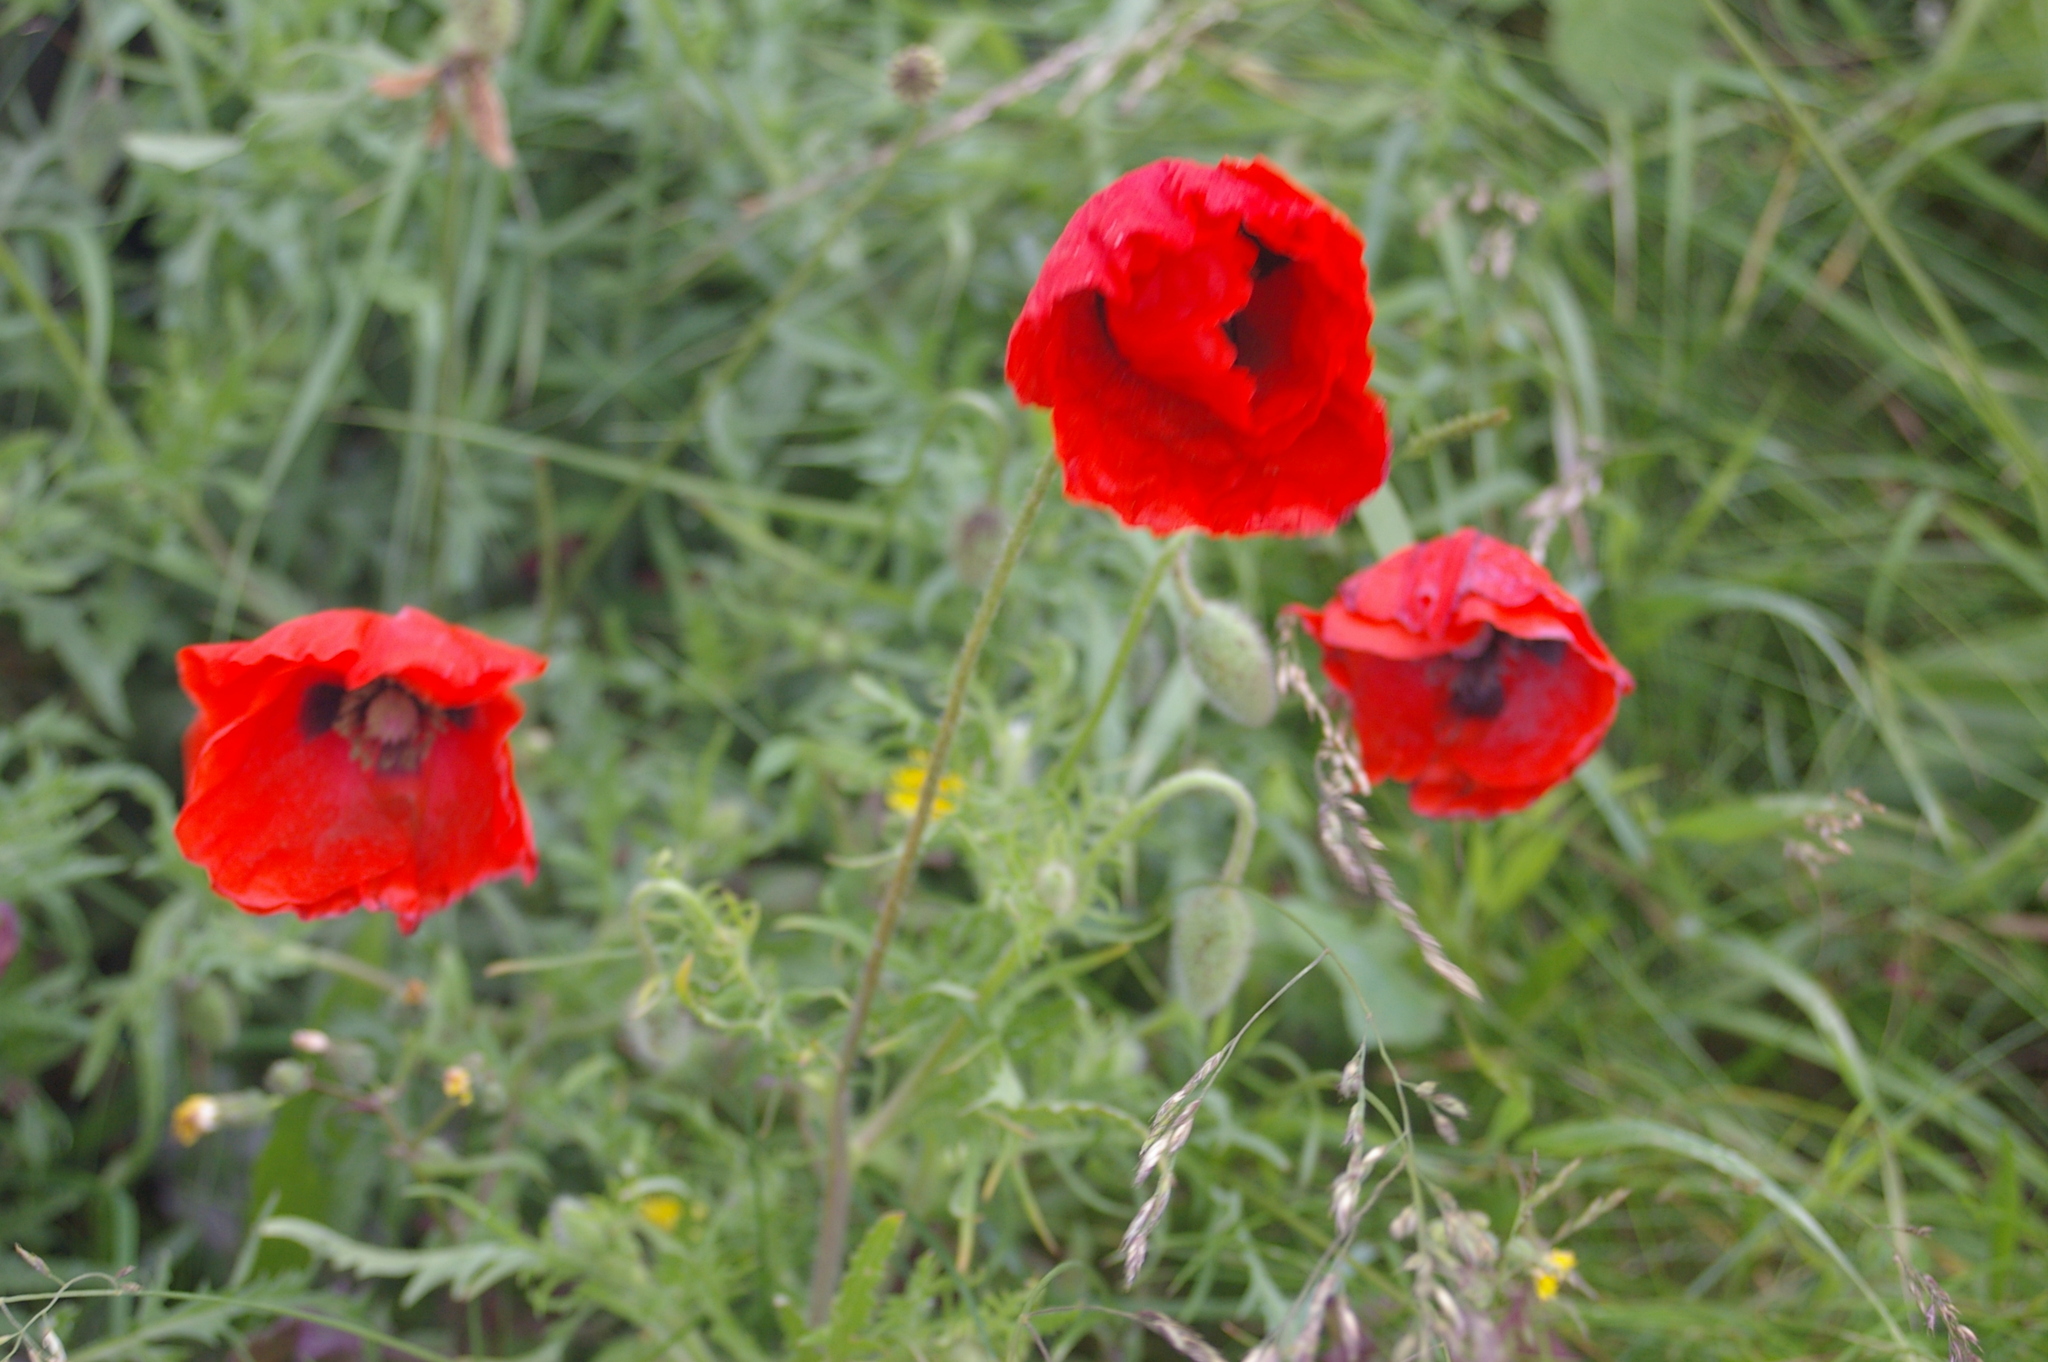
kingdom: Plantae
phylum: Tracheophyta
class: Magnoliopsida
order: Ranunculales
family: Papaveraceae
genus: Papaver
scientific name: Papaver rhoeas
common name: Corn poppy
